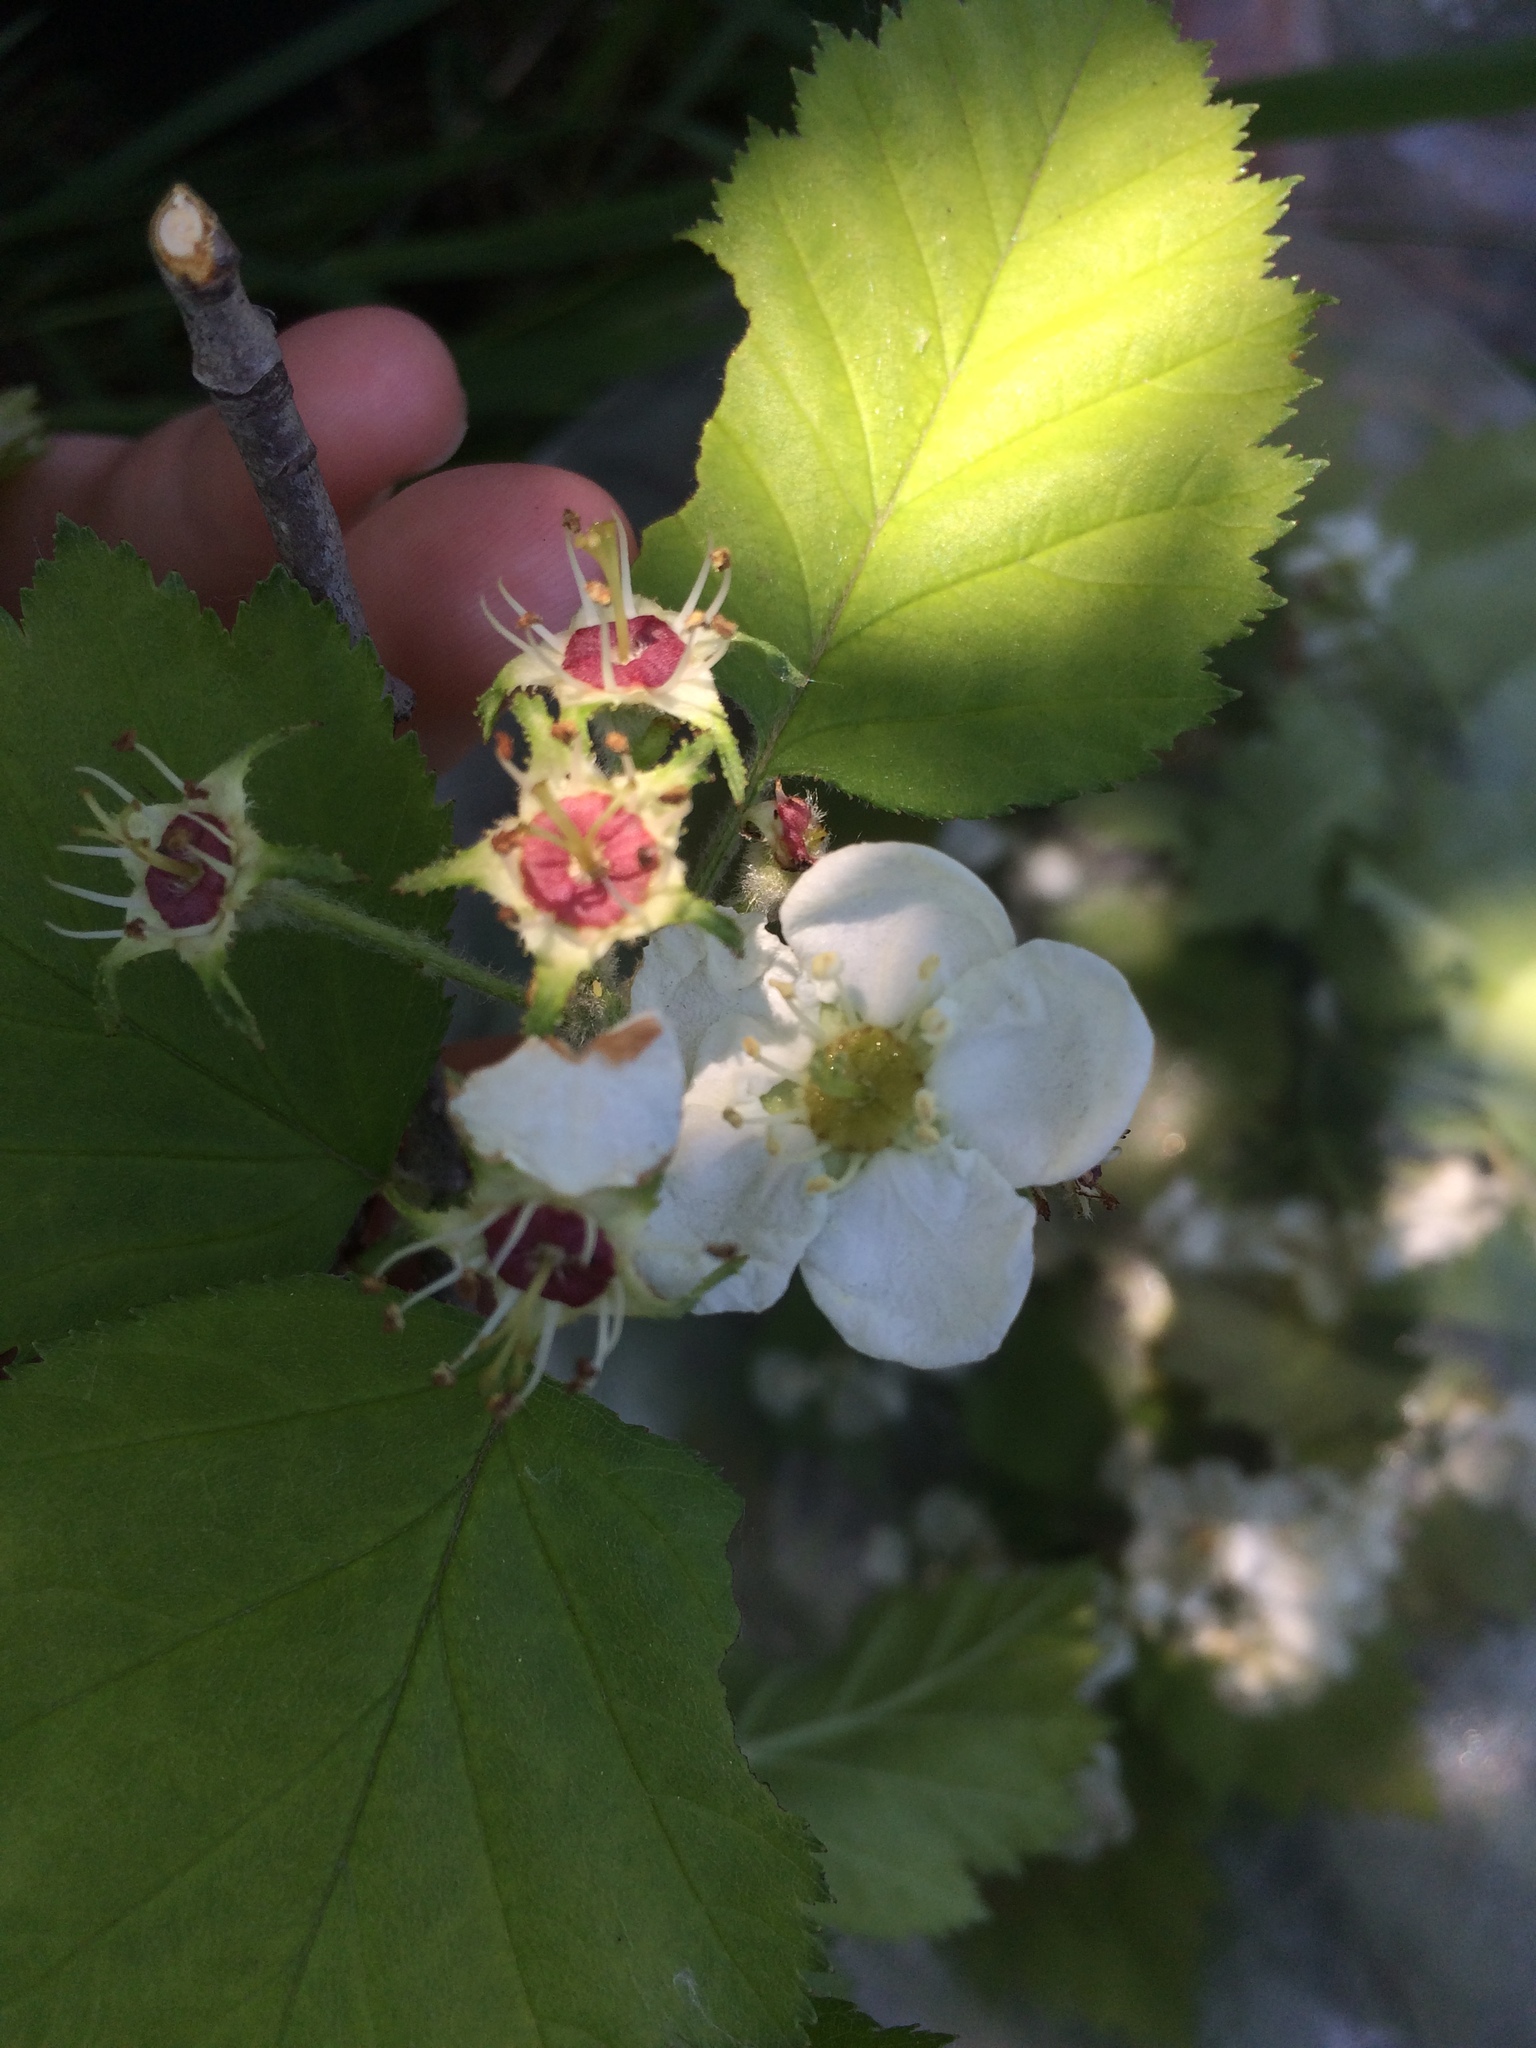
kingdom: Plantae
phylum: Tracheophyta
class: Magnoliopsida
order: Rosales
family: Rosaceae
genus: Crataegus
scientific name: Crataegus submollis
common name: Hairy cockspurthorn
